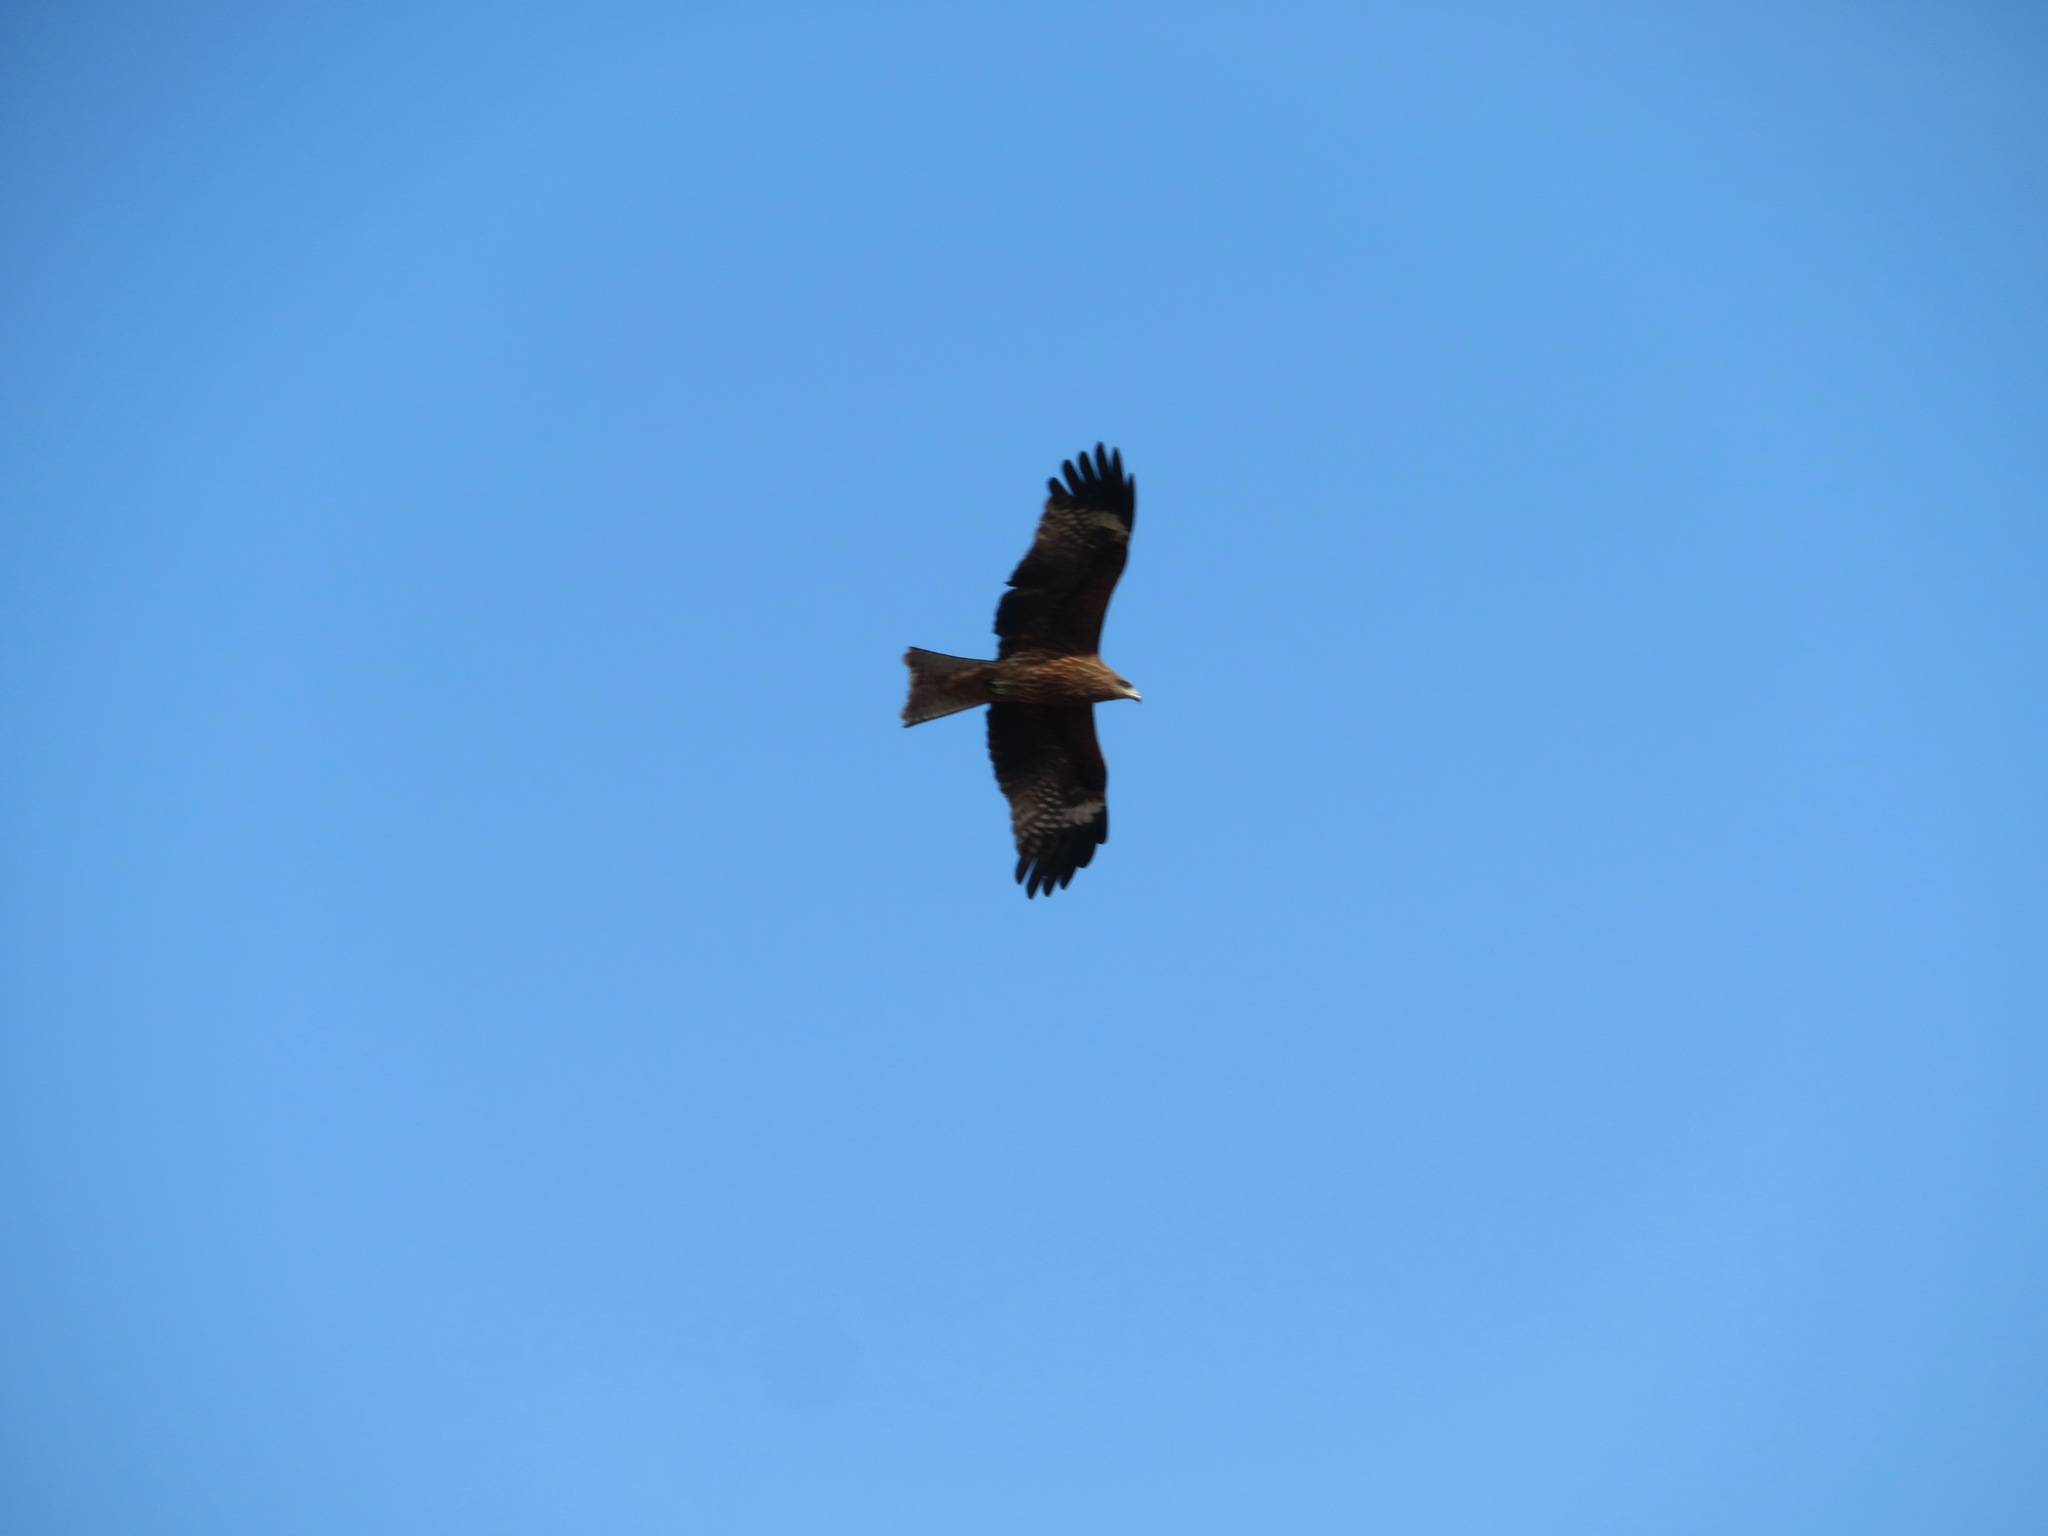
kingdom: Animalia
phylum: Chordata
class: Aves
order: Accipitriformes
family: Accipitridae
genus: Milvus
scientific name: Milvus migrans
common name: Black kite
